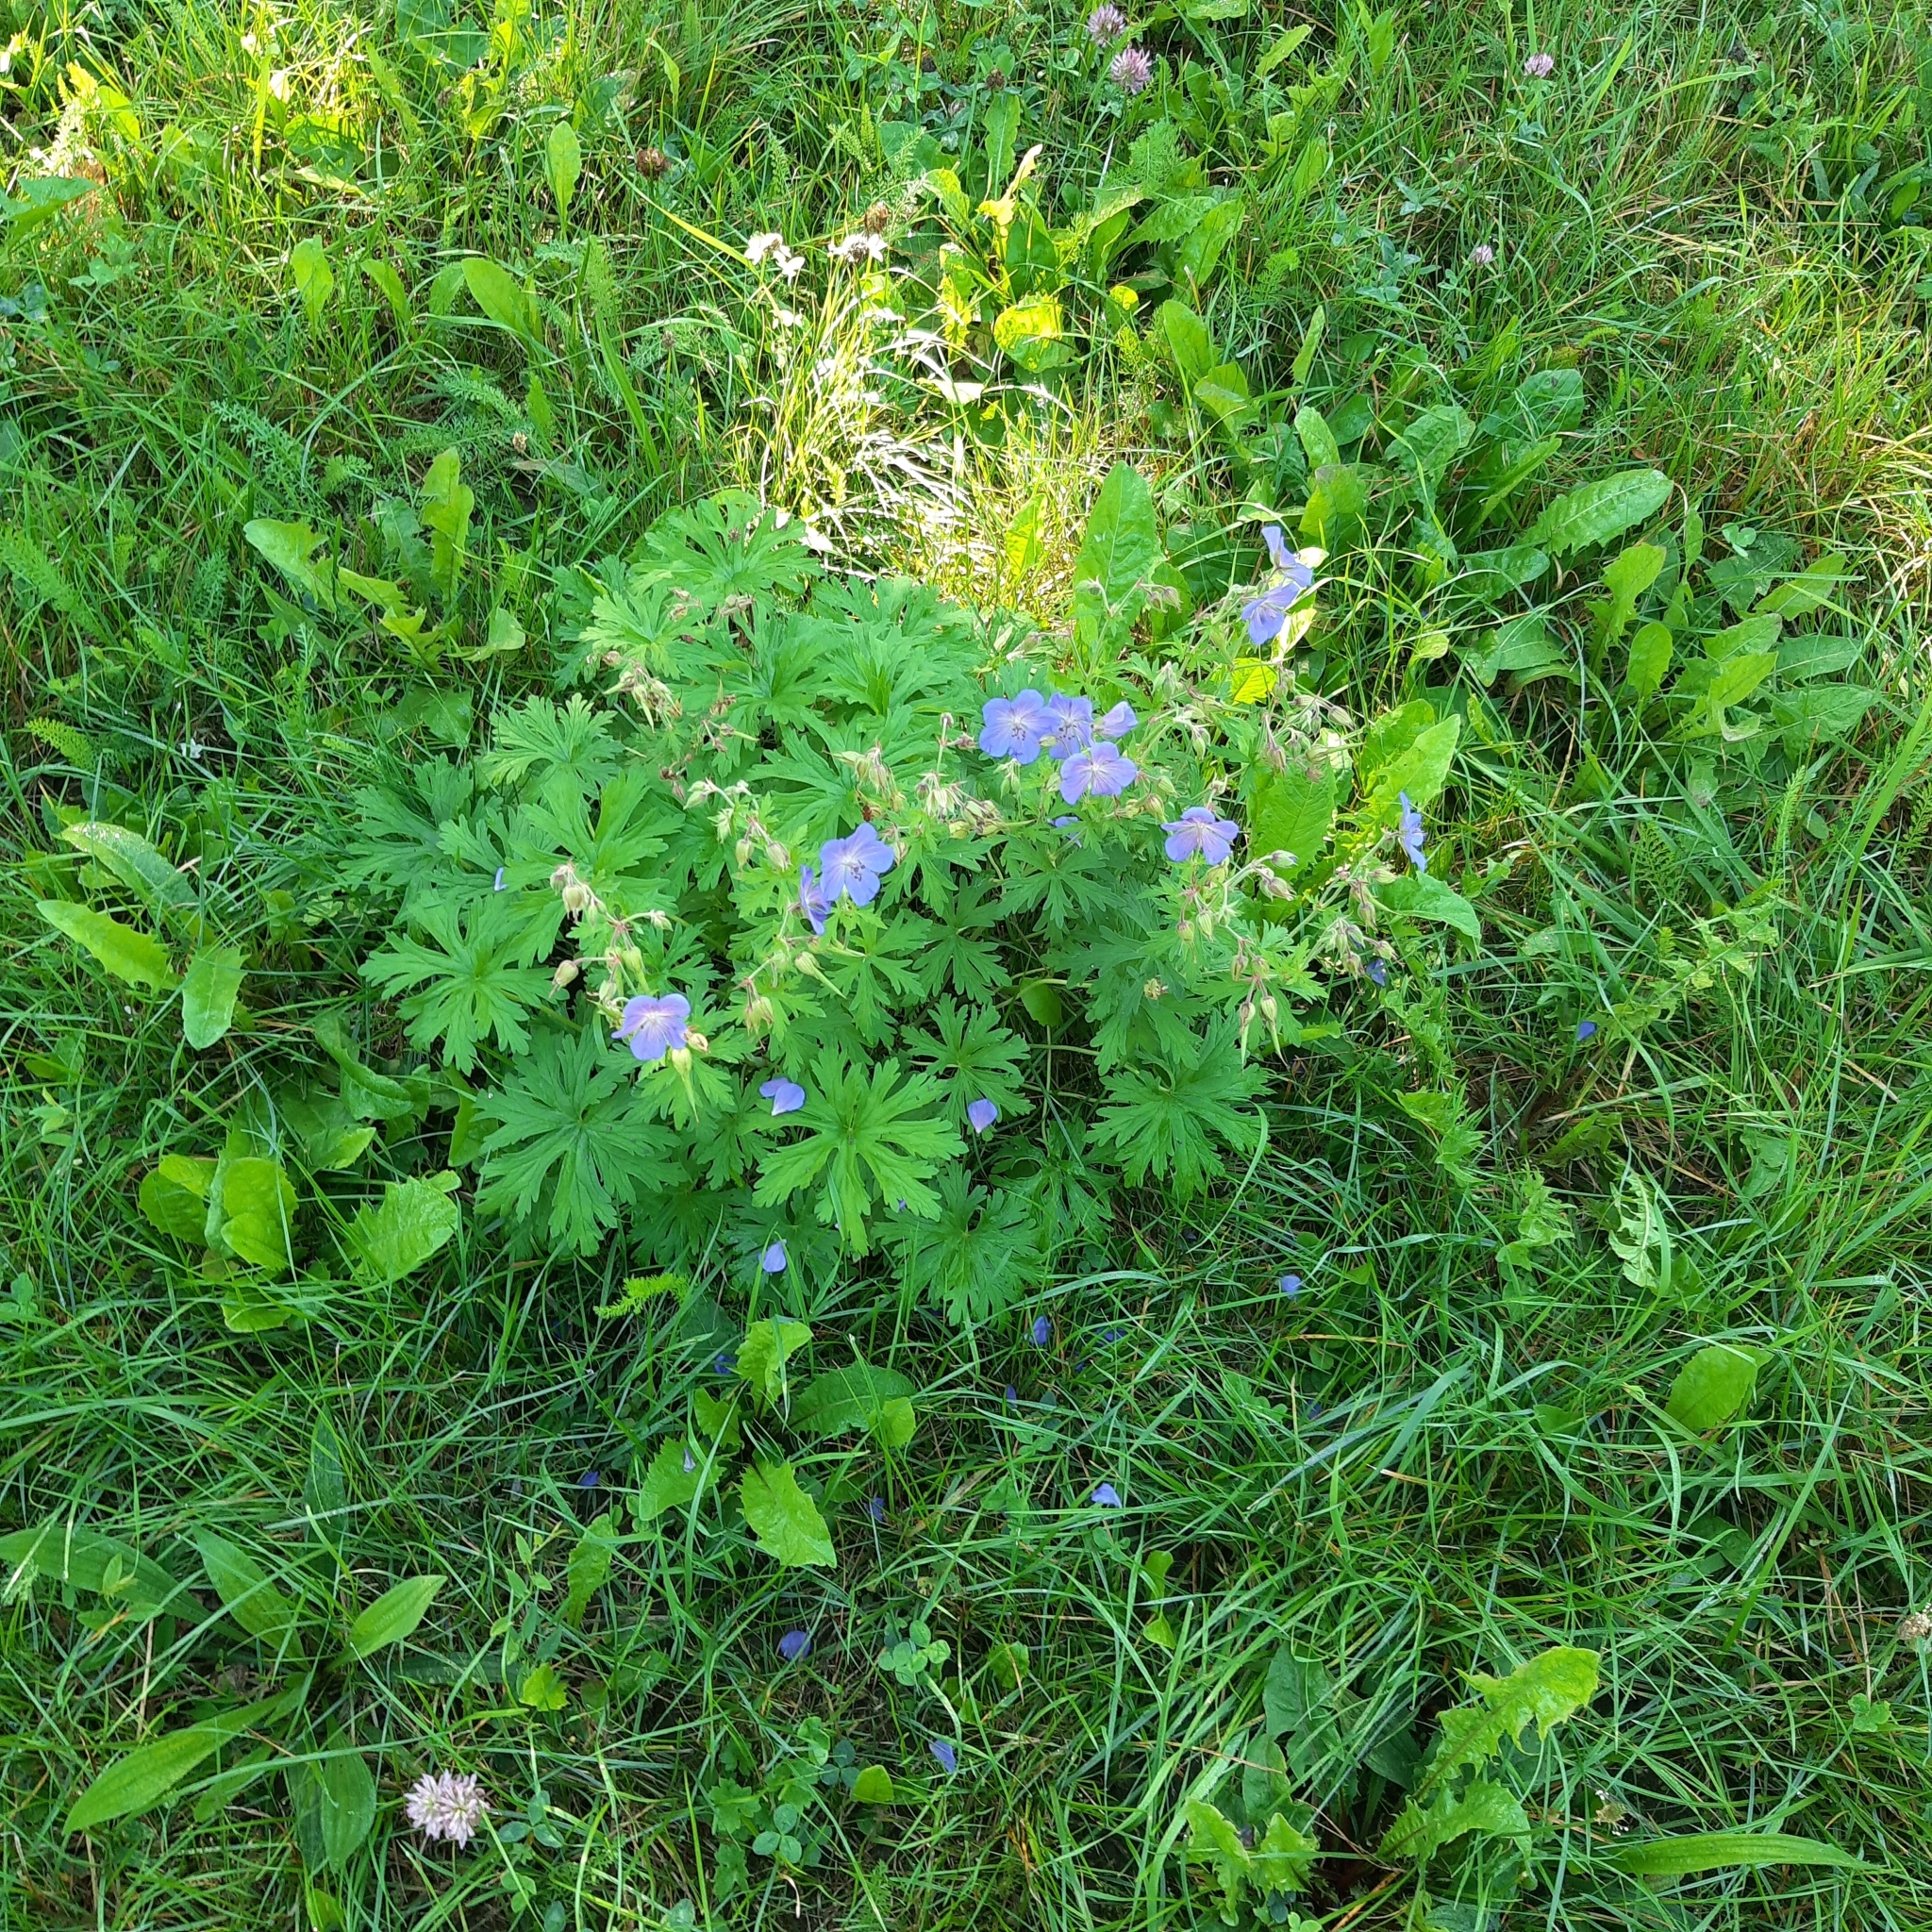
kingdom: Plantae
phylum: Tracheophyta
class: Magnoliopsida
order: Geraniales
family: Geraniaceae
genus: Geranium
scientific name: Geranium pratense
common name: Meadow crane's-bill
